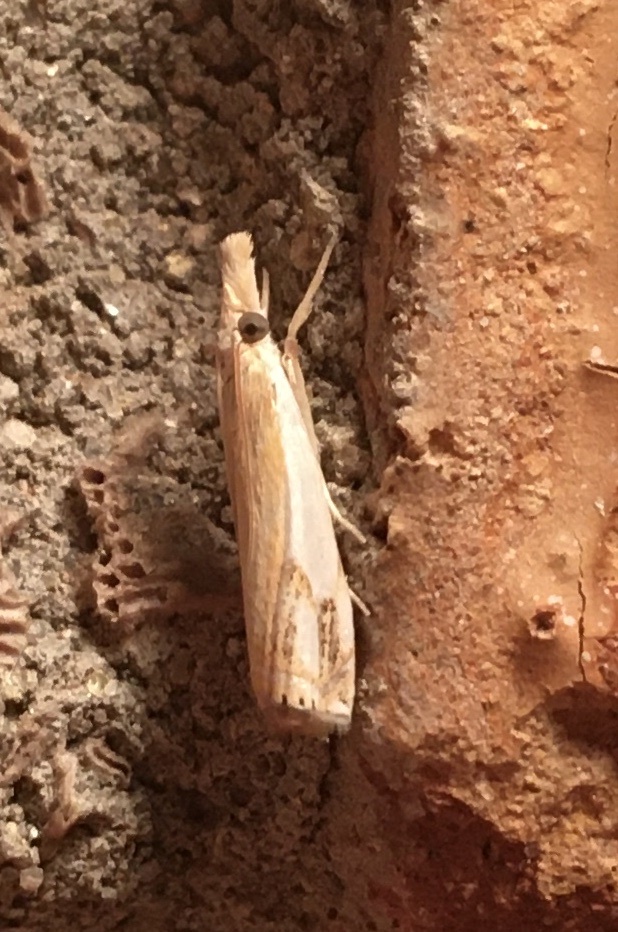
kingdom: Animalia
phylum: Arthropoda
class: Insecta
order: Lepidoptera
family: Crambidae
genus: Crambus
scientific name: Crambus agitatellus
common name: Double-banded grass-veneer
